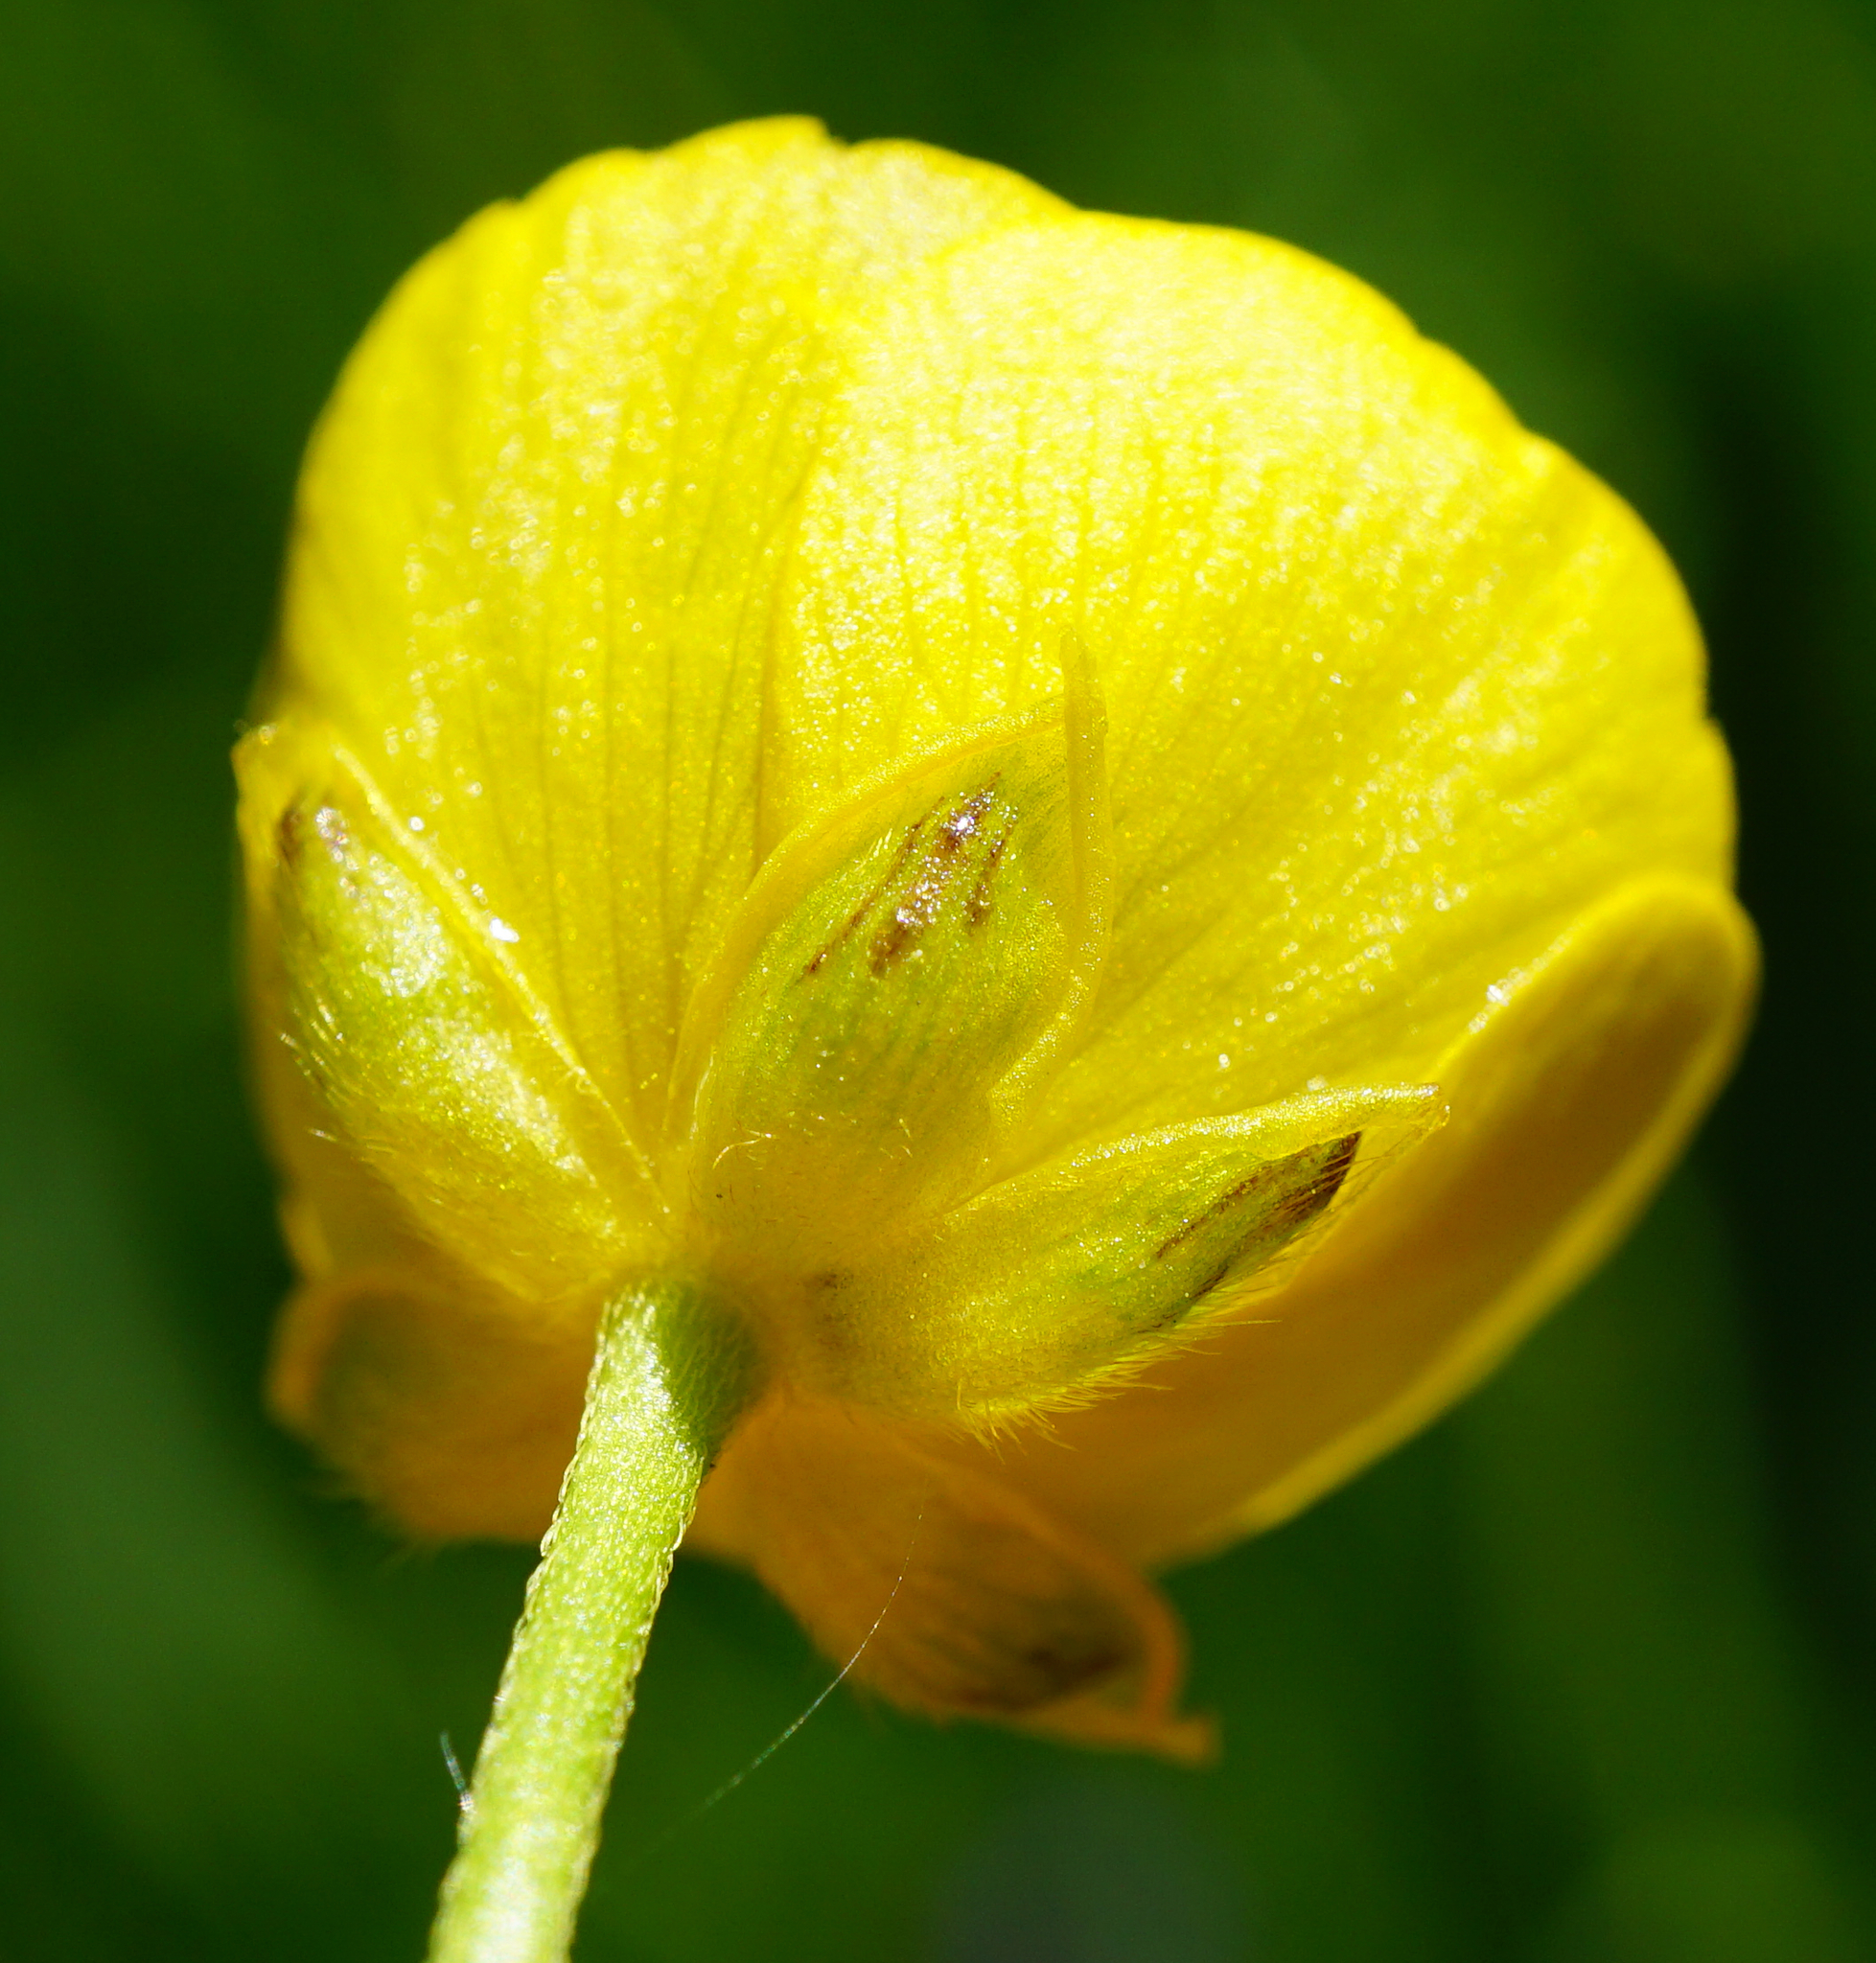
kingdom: Plantae
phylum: Tracheophyta
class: Magnoliopsida
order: Ranunculales
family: Ranunculaceae
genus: Ranunculus
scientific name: Ranunculus acris
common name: Meadow buttercup
